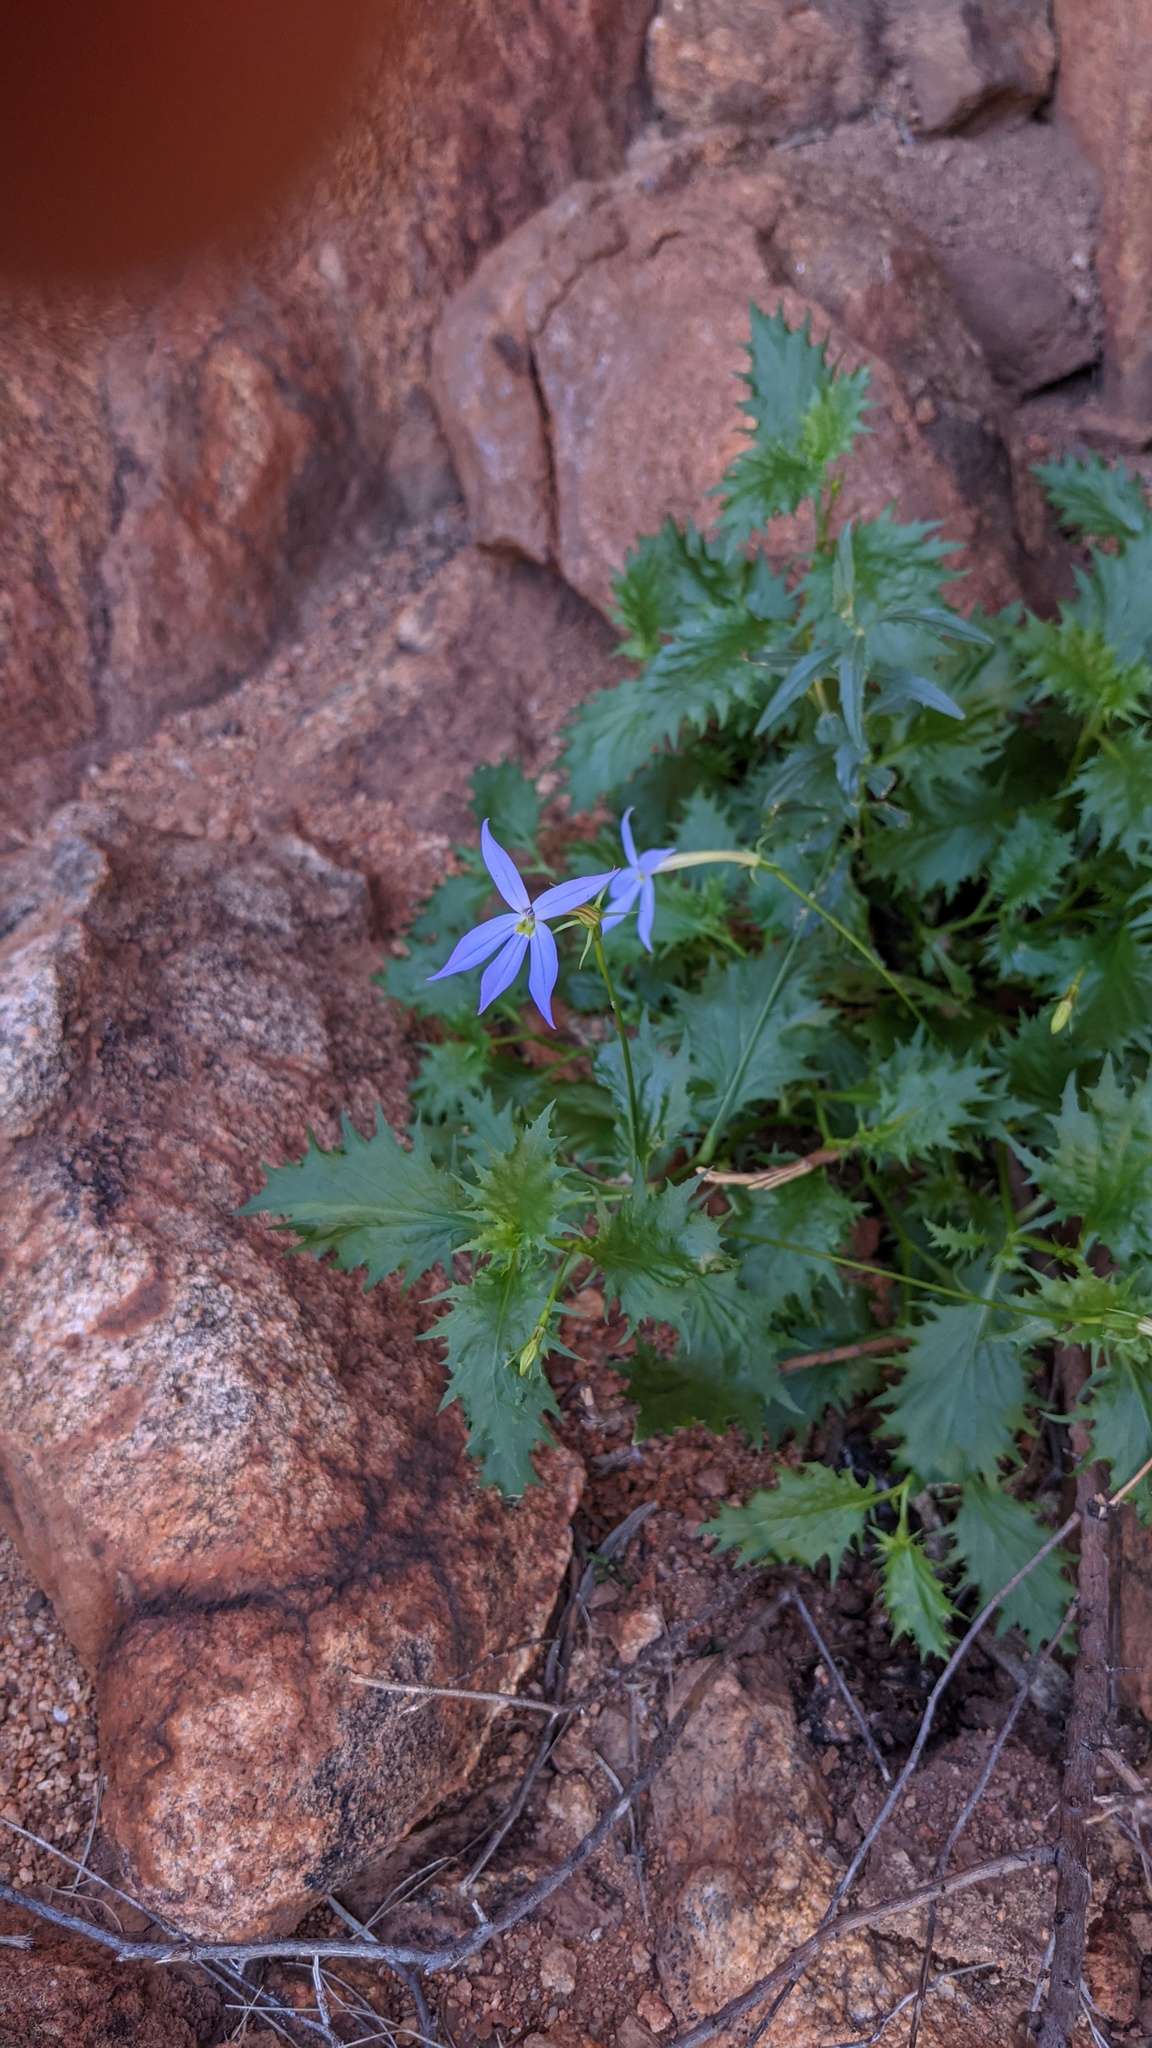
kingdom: Plantae
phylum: Tracheophyta
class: Magnoliopsida
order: Asterales
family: Campanulaceae
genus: Lithotoma
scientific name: Lithotoma petraea
